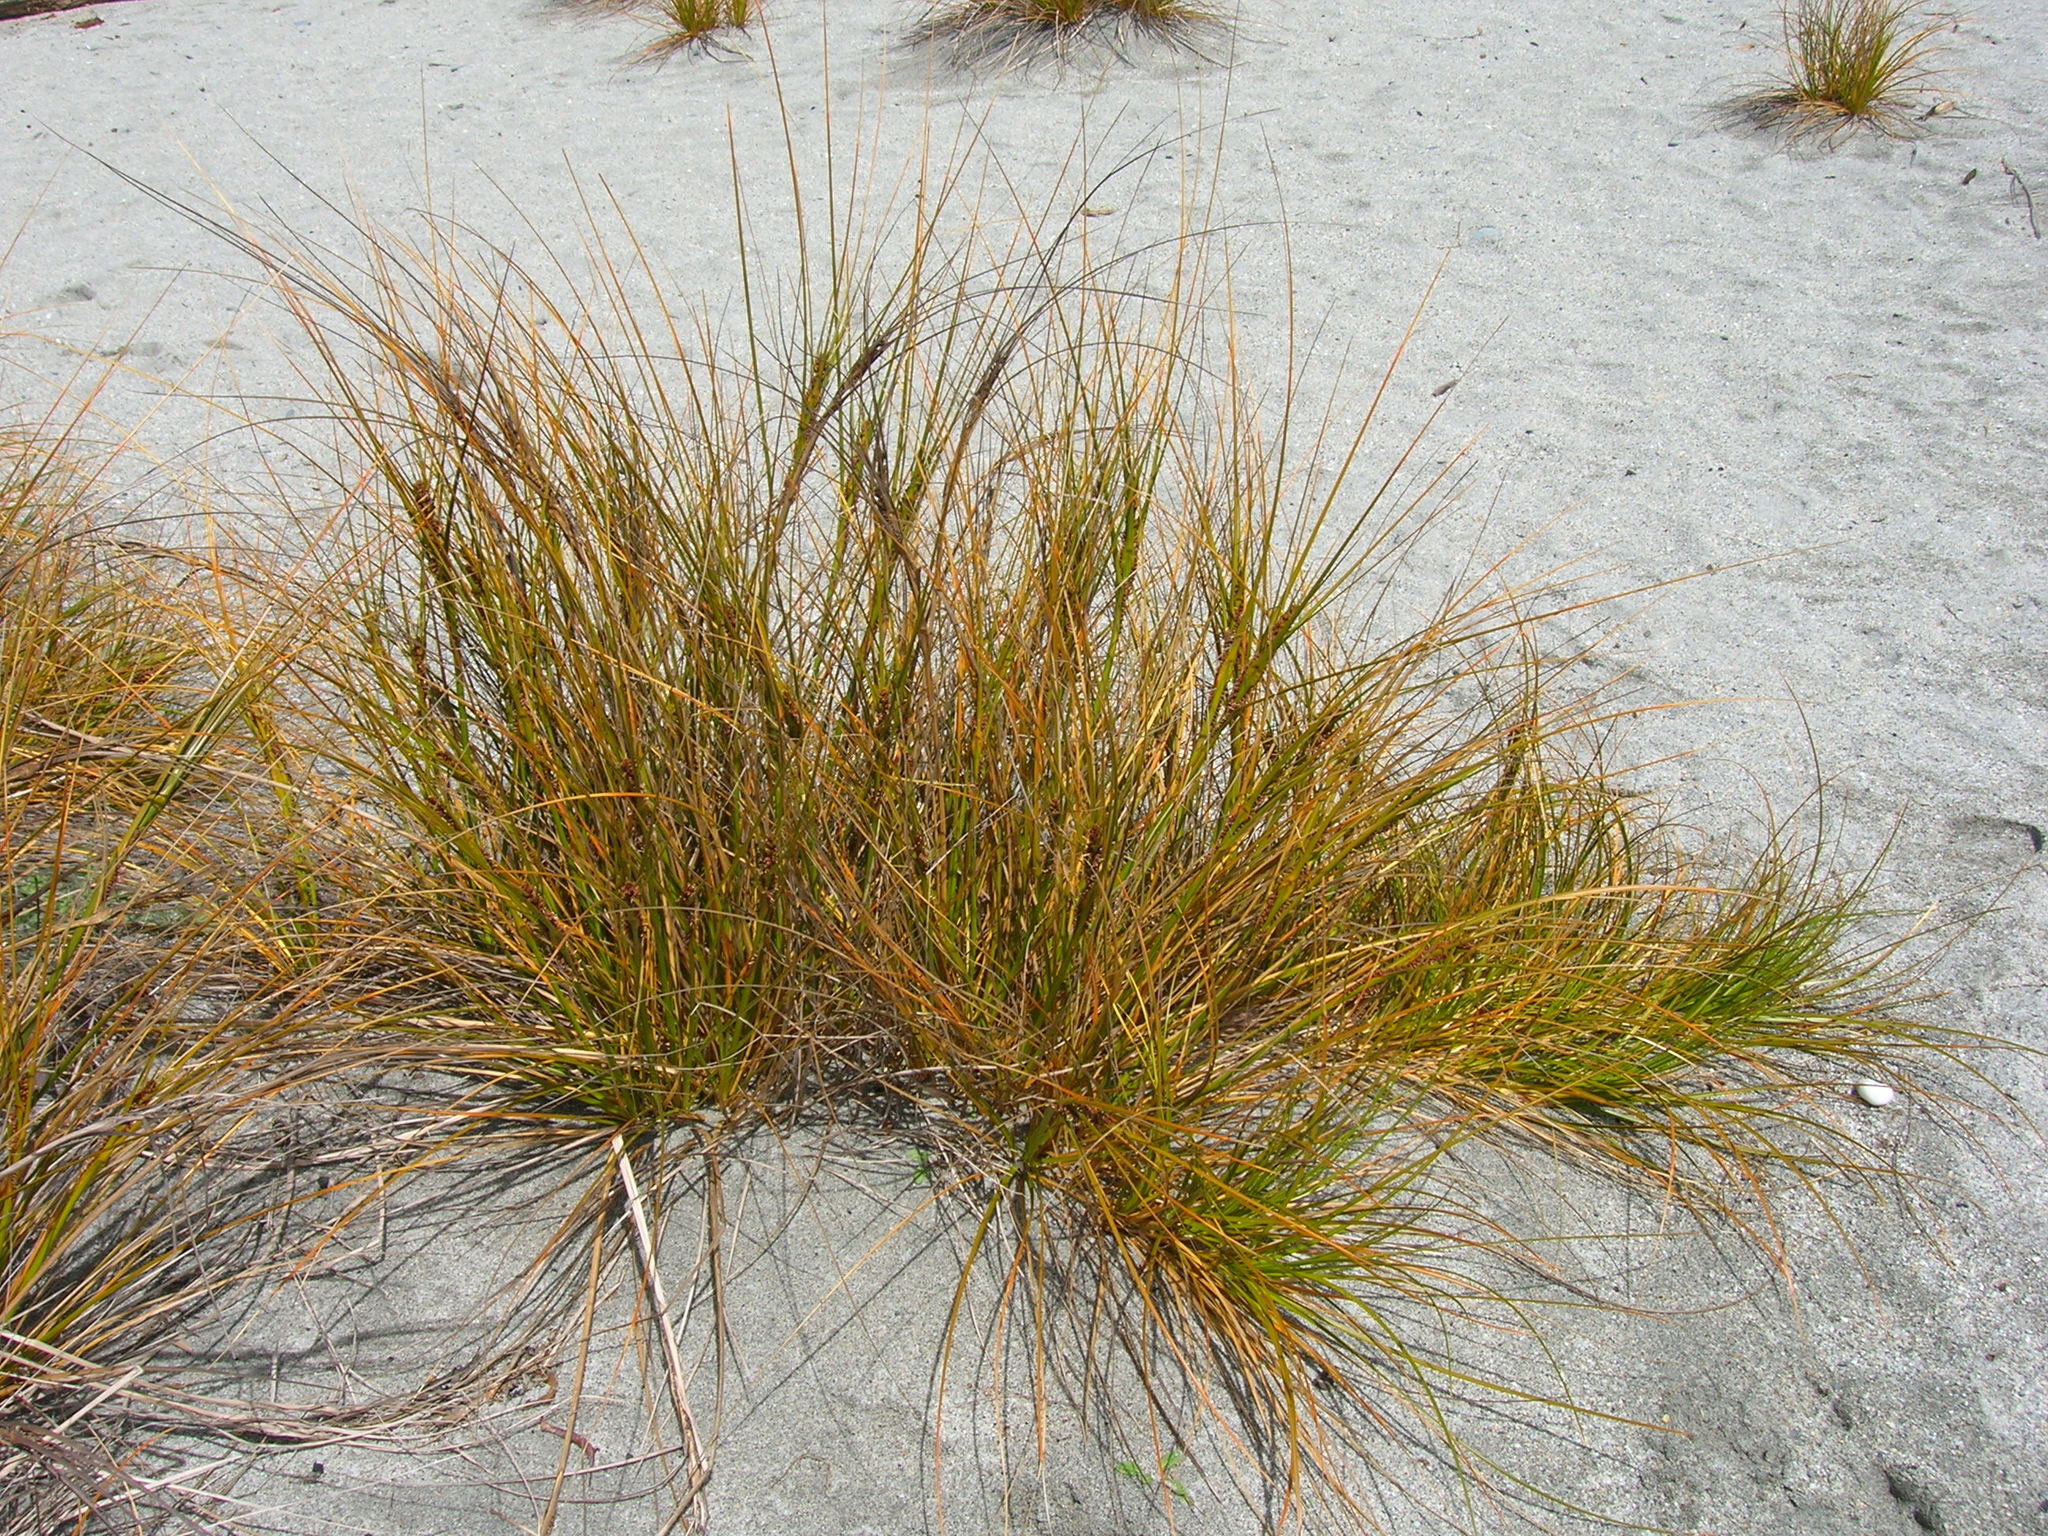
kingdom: Plantae
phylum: Tracheophyta
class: Liliopsida
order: Poales
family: Cyperaceae
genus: Ficinia
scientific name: Ficinia spiralis
